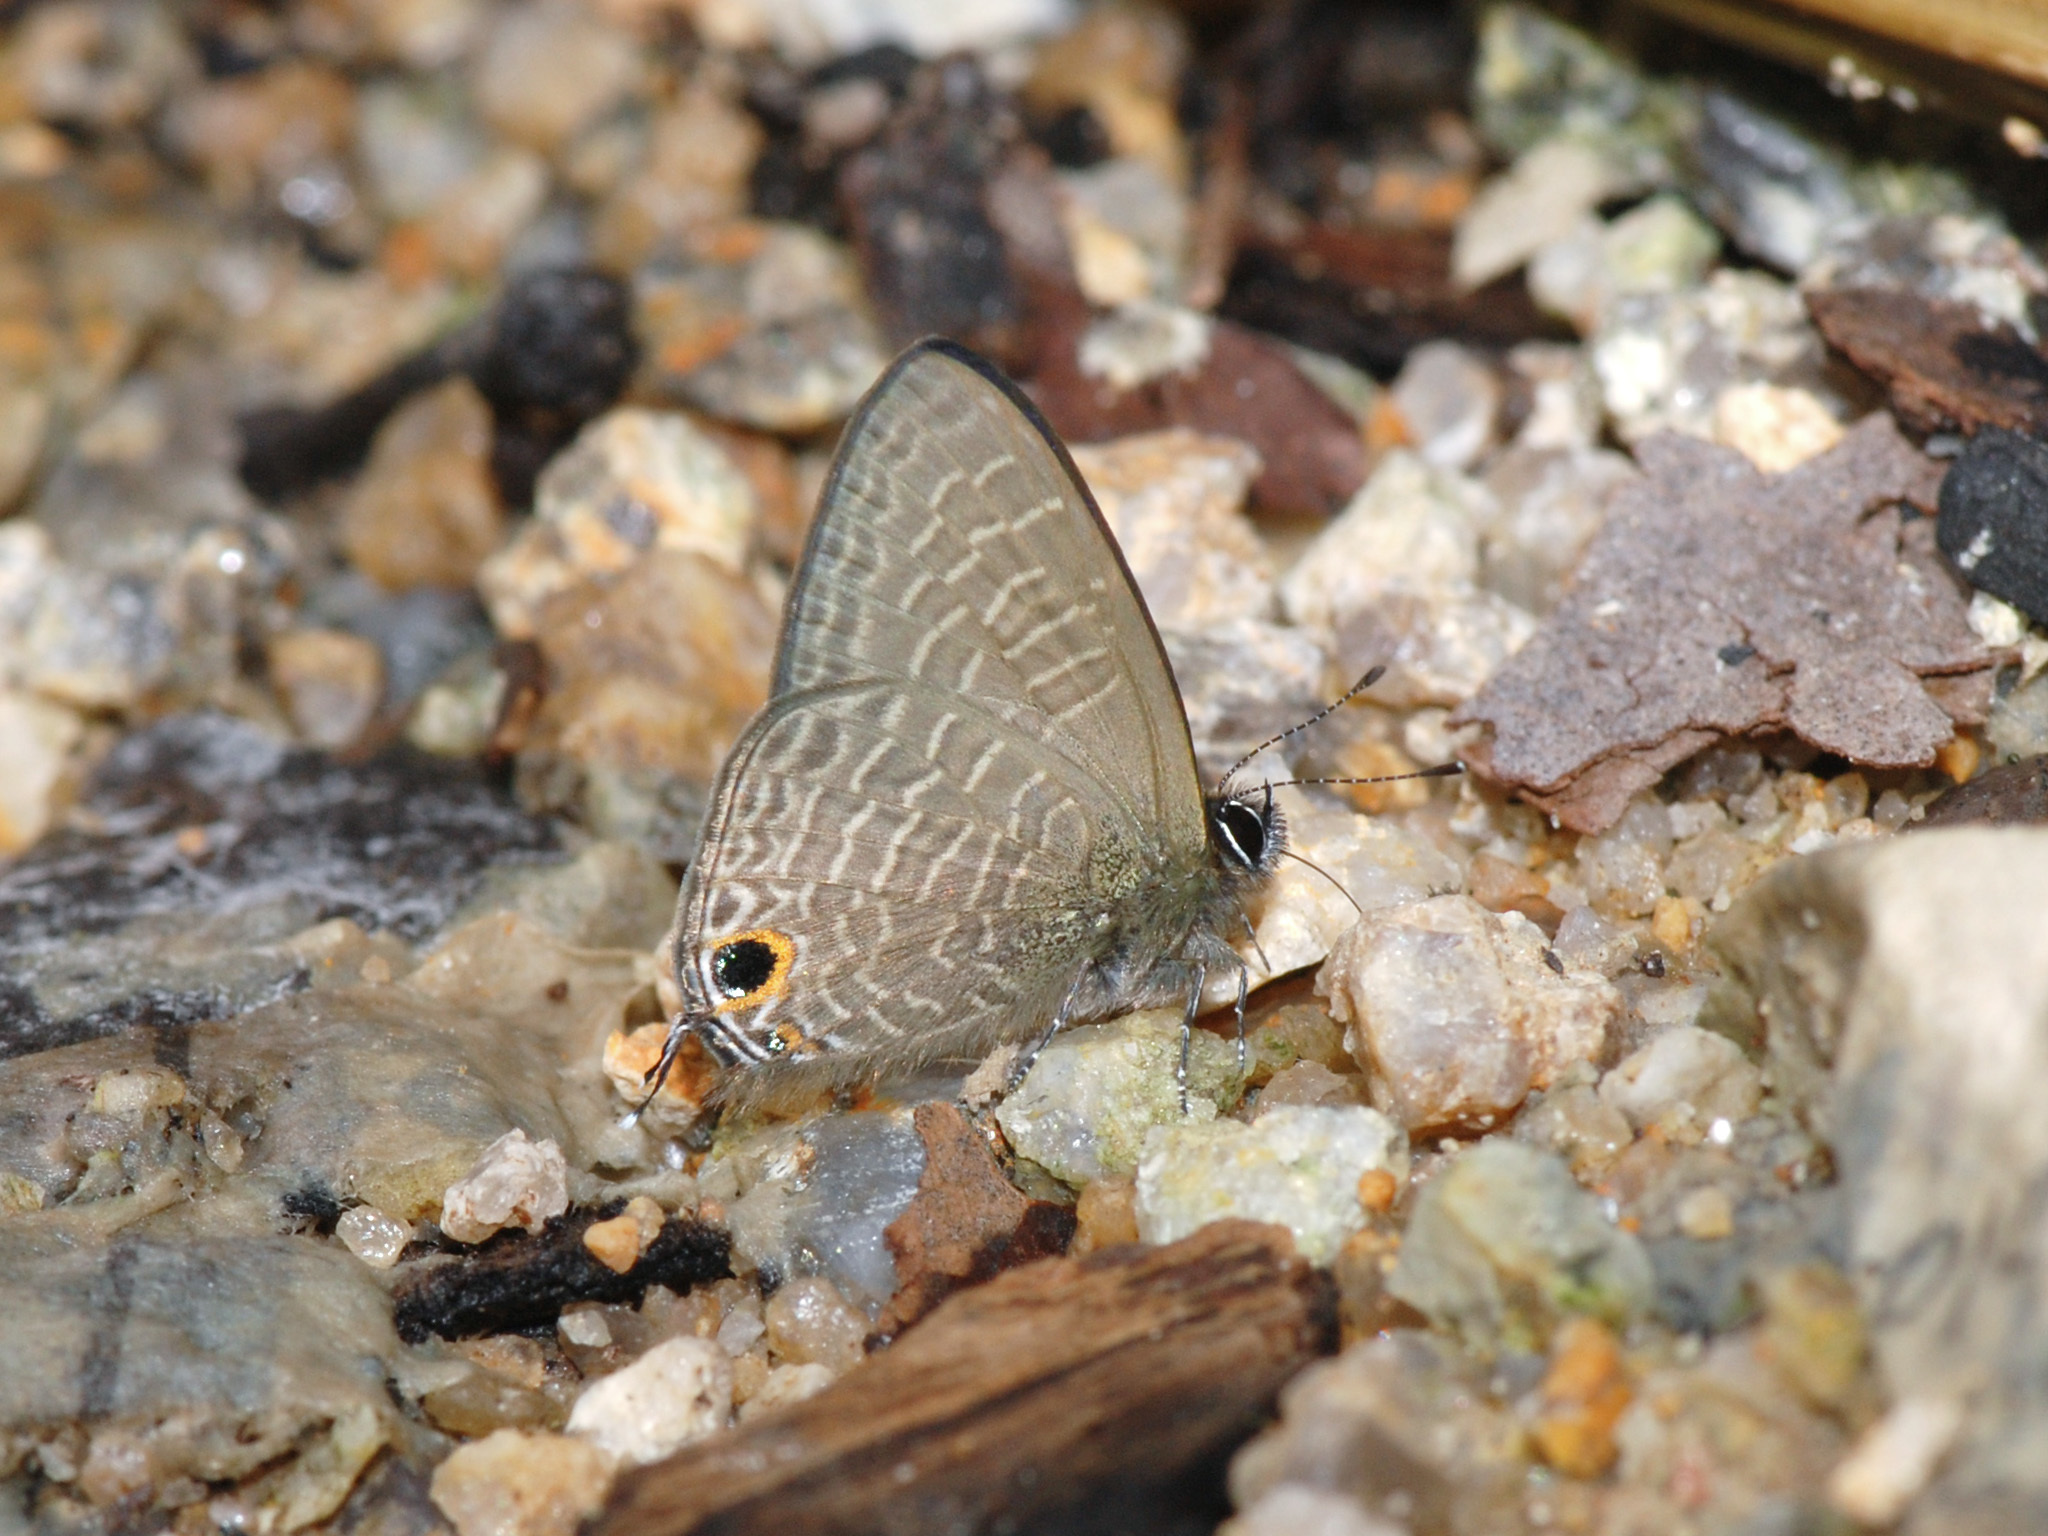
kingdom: Animalia
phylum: Arthropoda
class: Insecta
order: Lepidoptera
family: Lycaenidae
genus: Ionolyce
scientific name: Ionolyce helicon
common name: Pointed line blue
